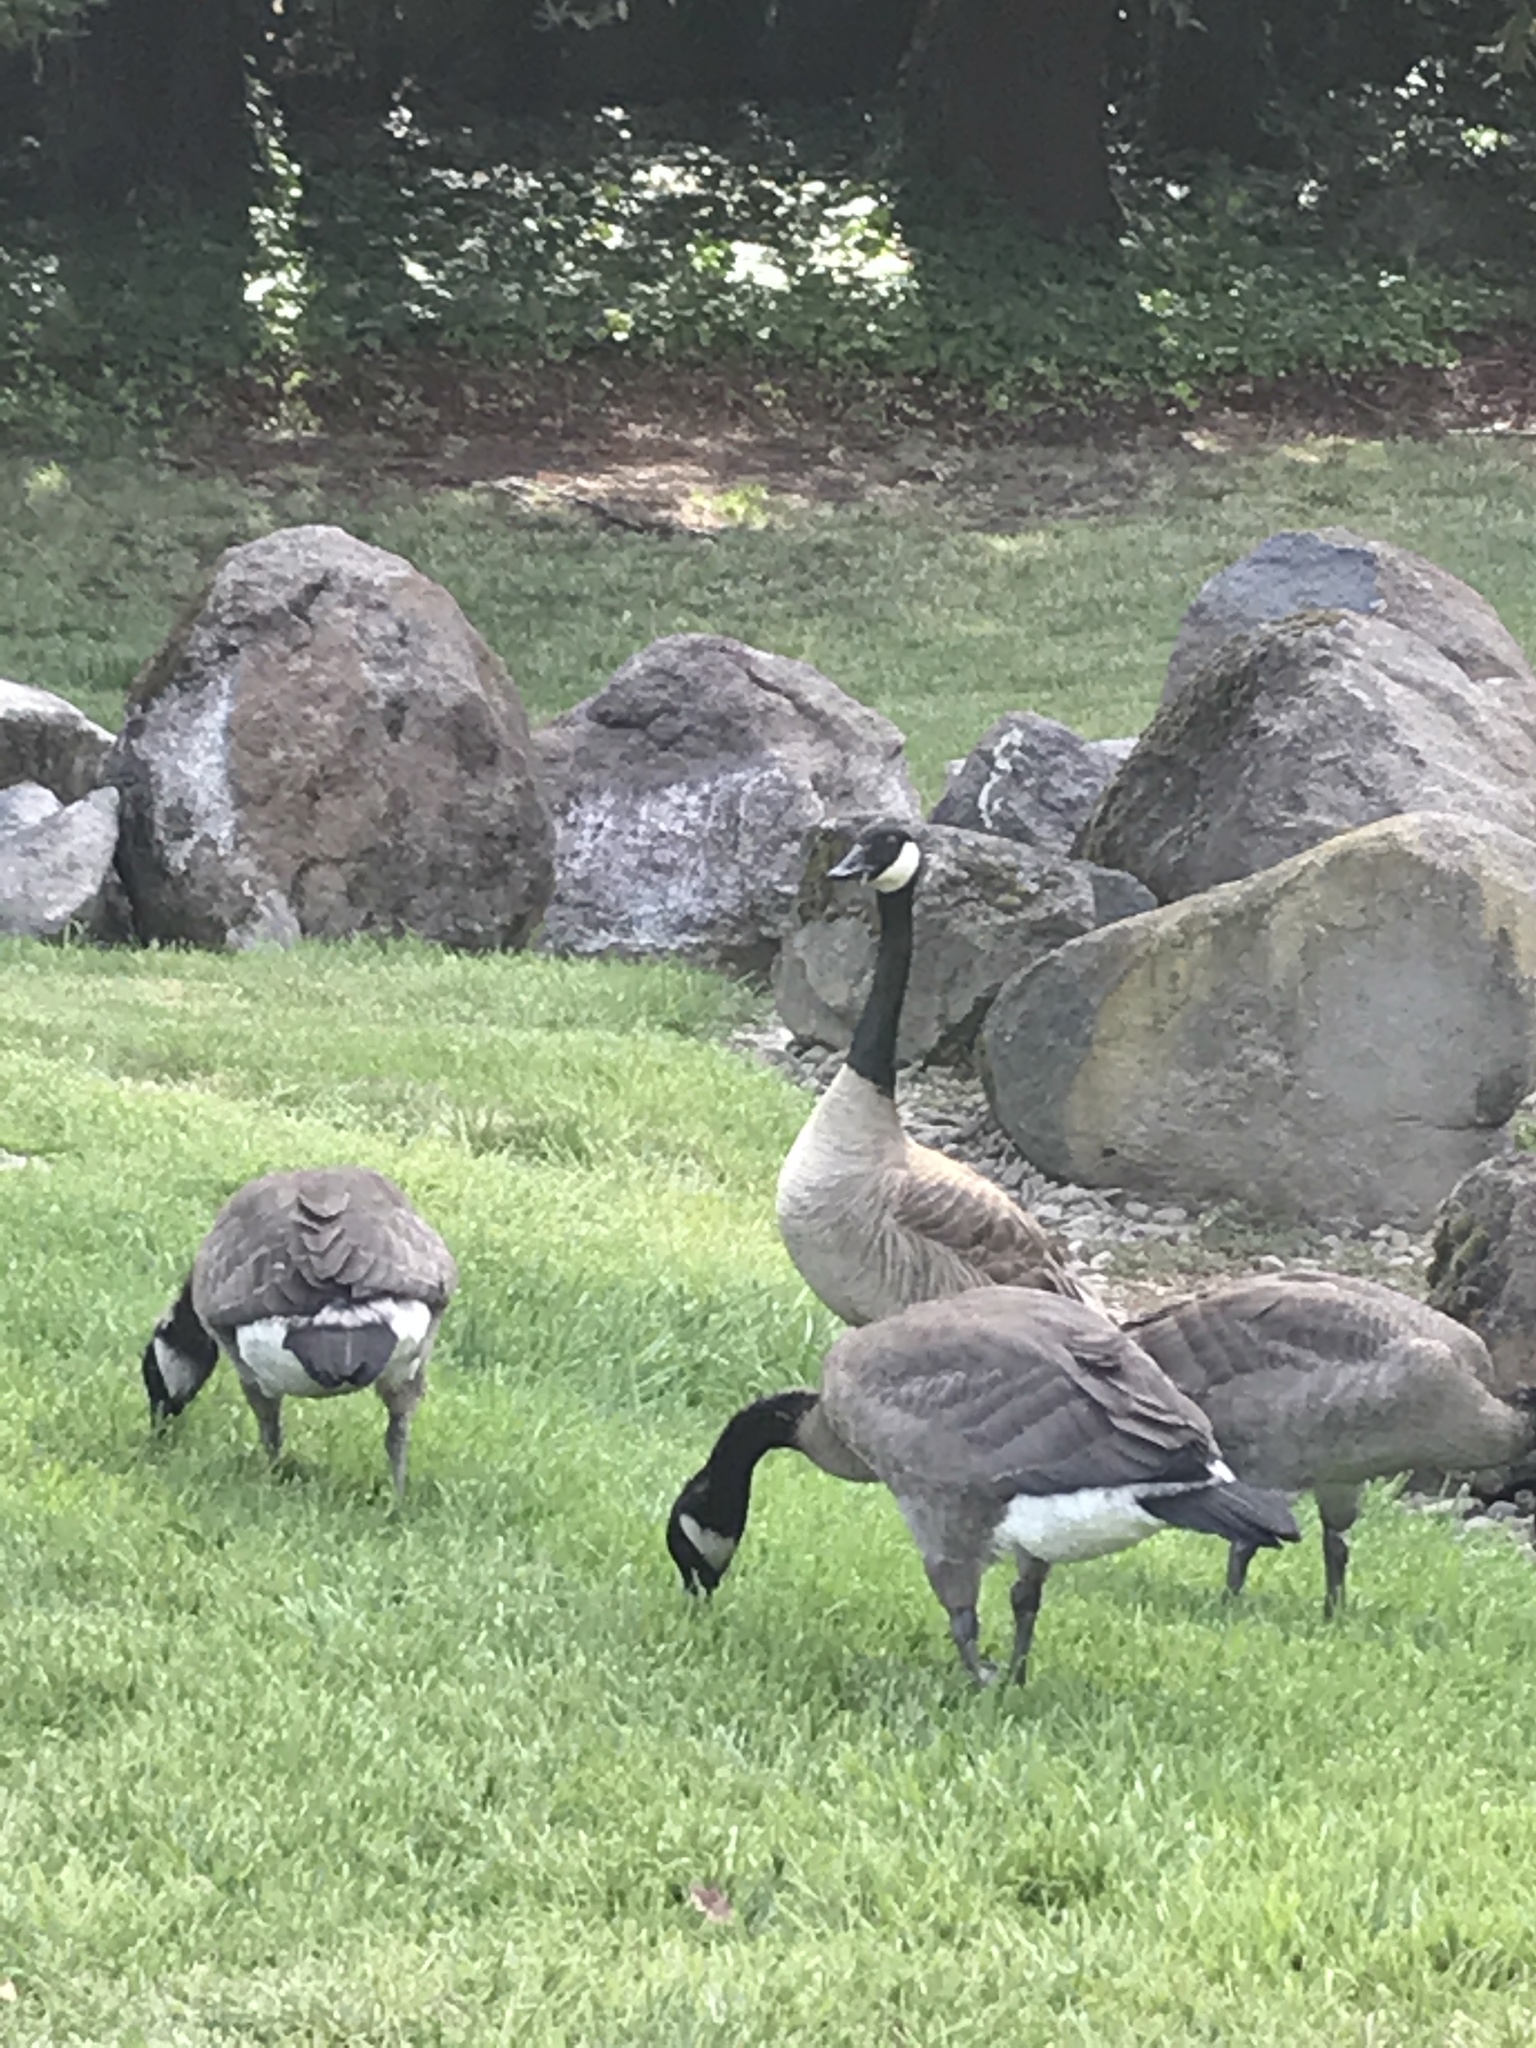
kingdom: Animalia
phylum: Chordata
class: Aves
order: Anseriformes
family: Anatidae
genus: Branta
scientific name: Branta canadensis
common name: Canada goose
